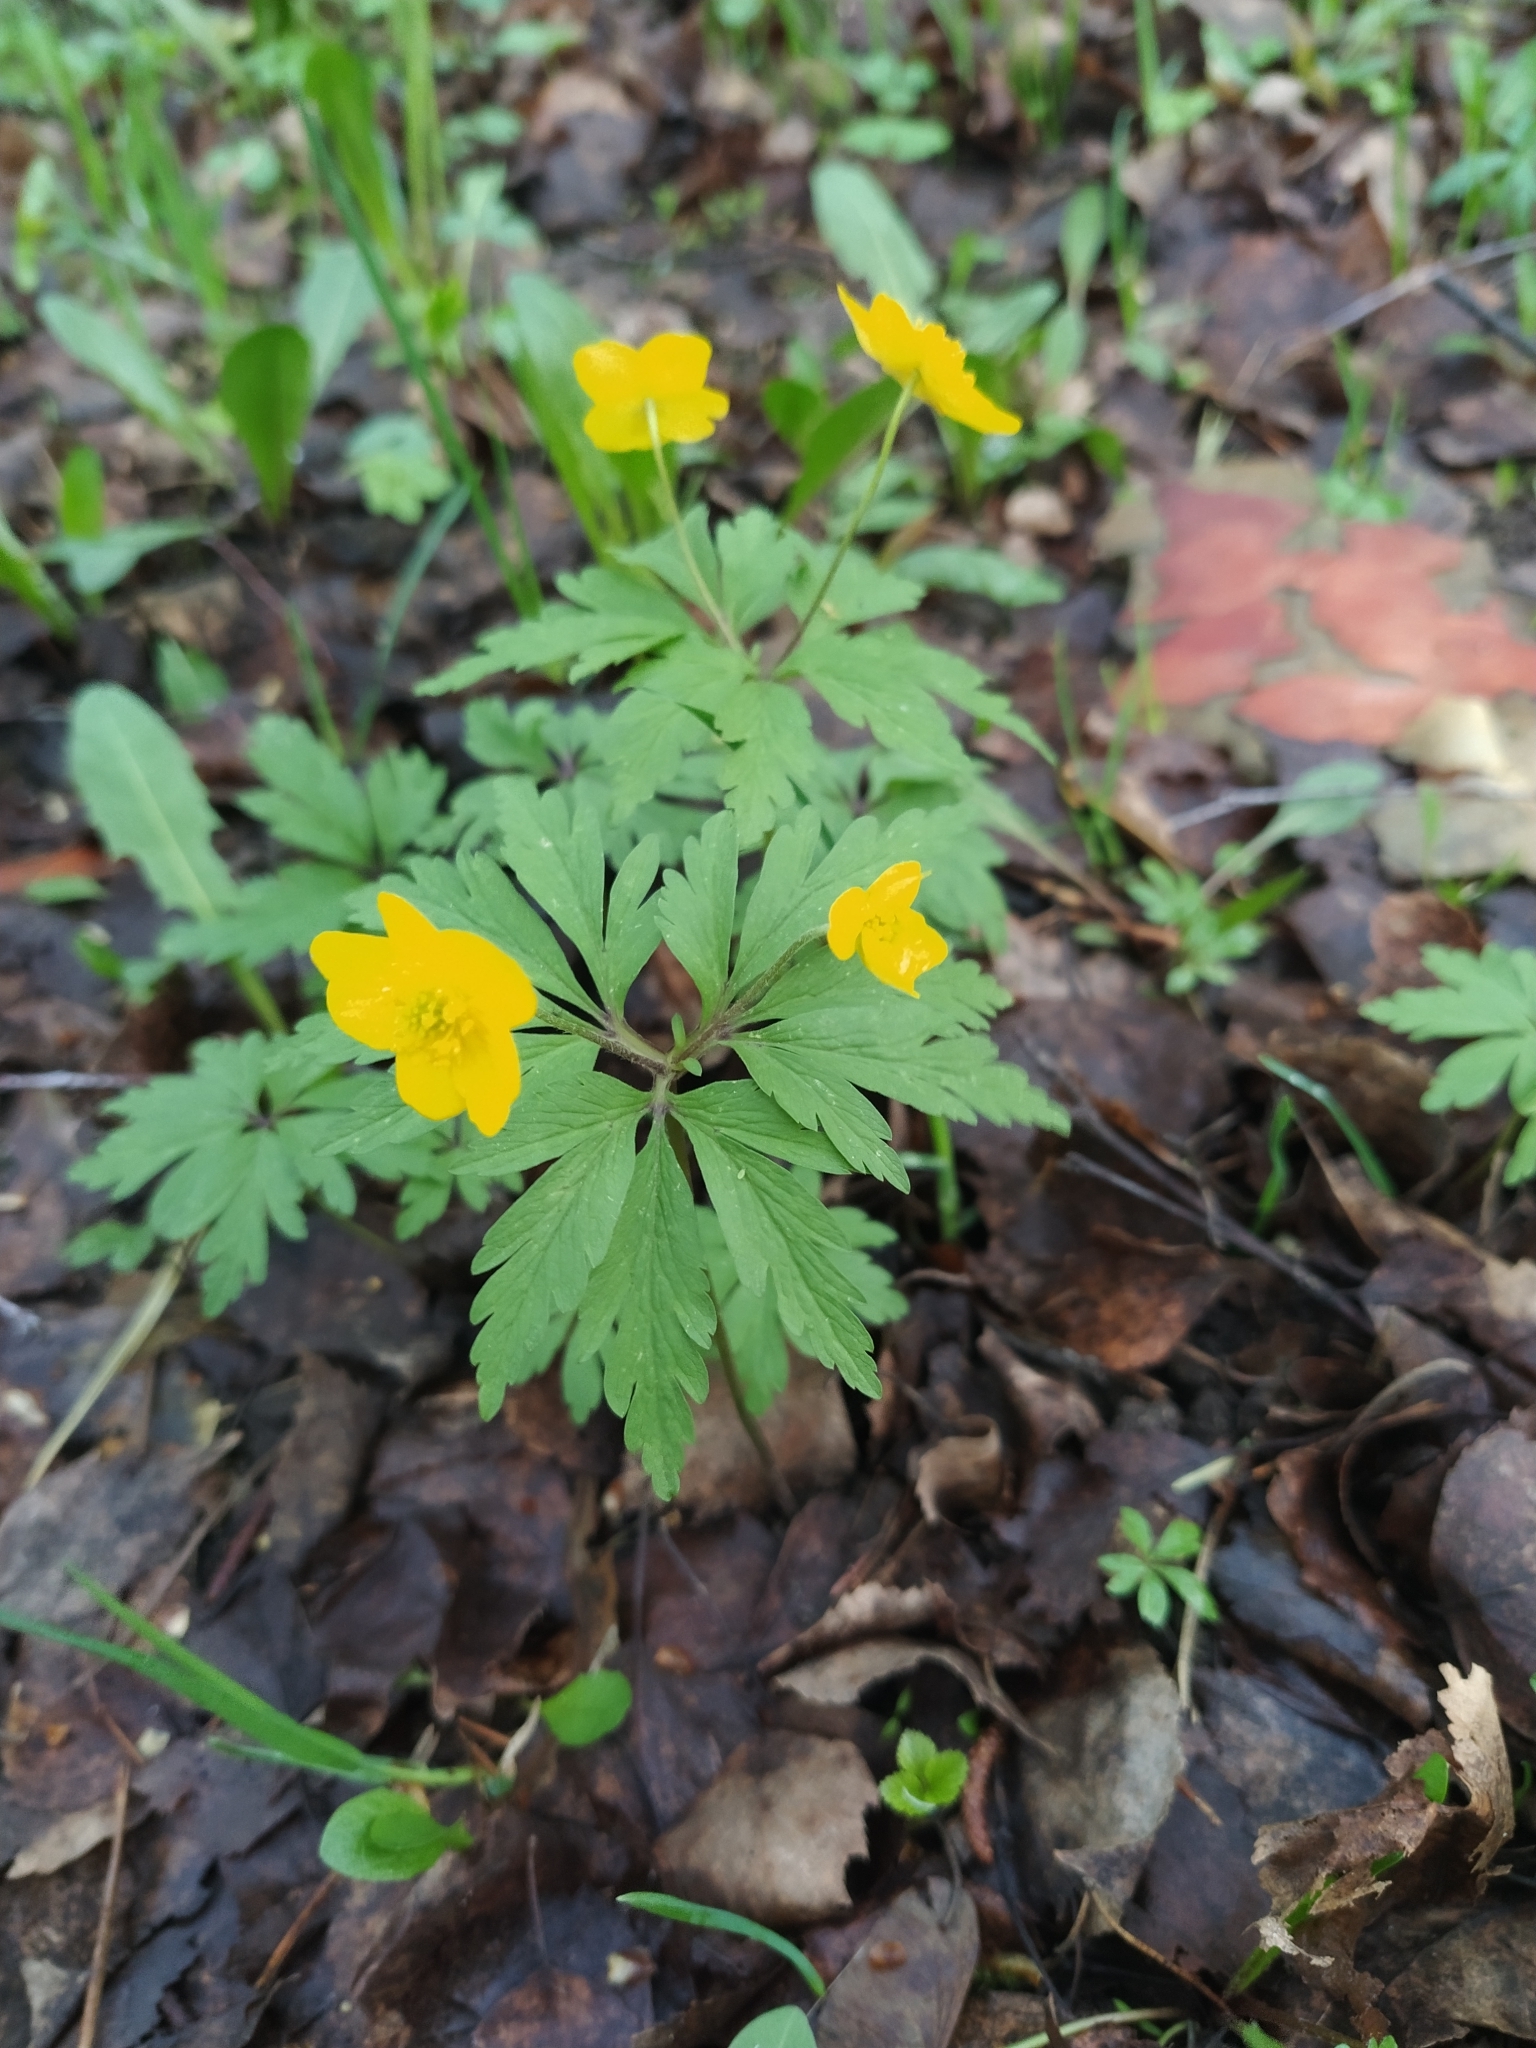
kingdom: Plantae
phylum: Tracheophyta
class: Magnoliopsida
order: Ranunculales
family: Ranunculaceae
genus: Anemone
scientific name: Anemone ranunculoides
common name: Yellow anemone
